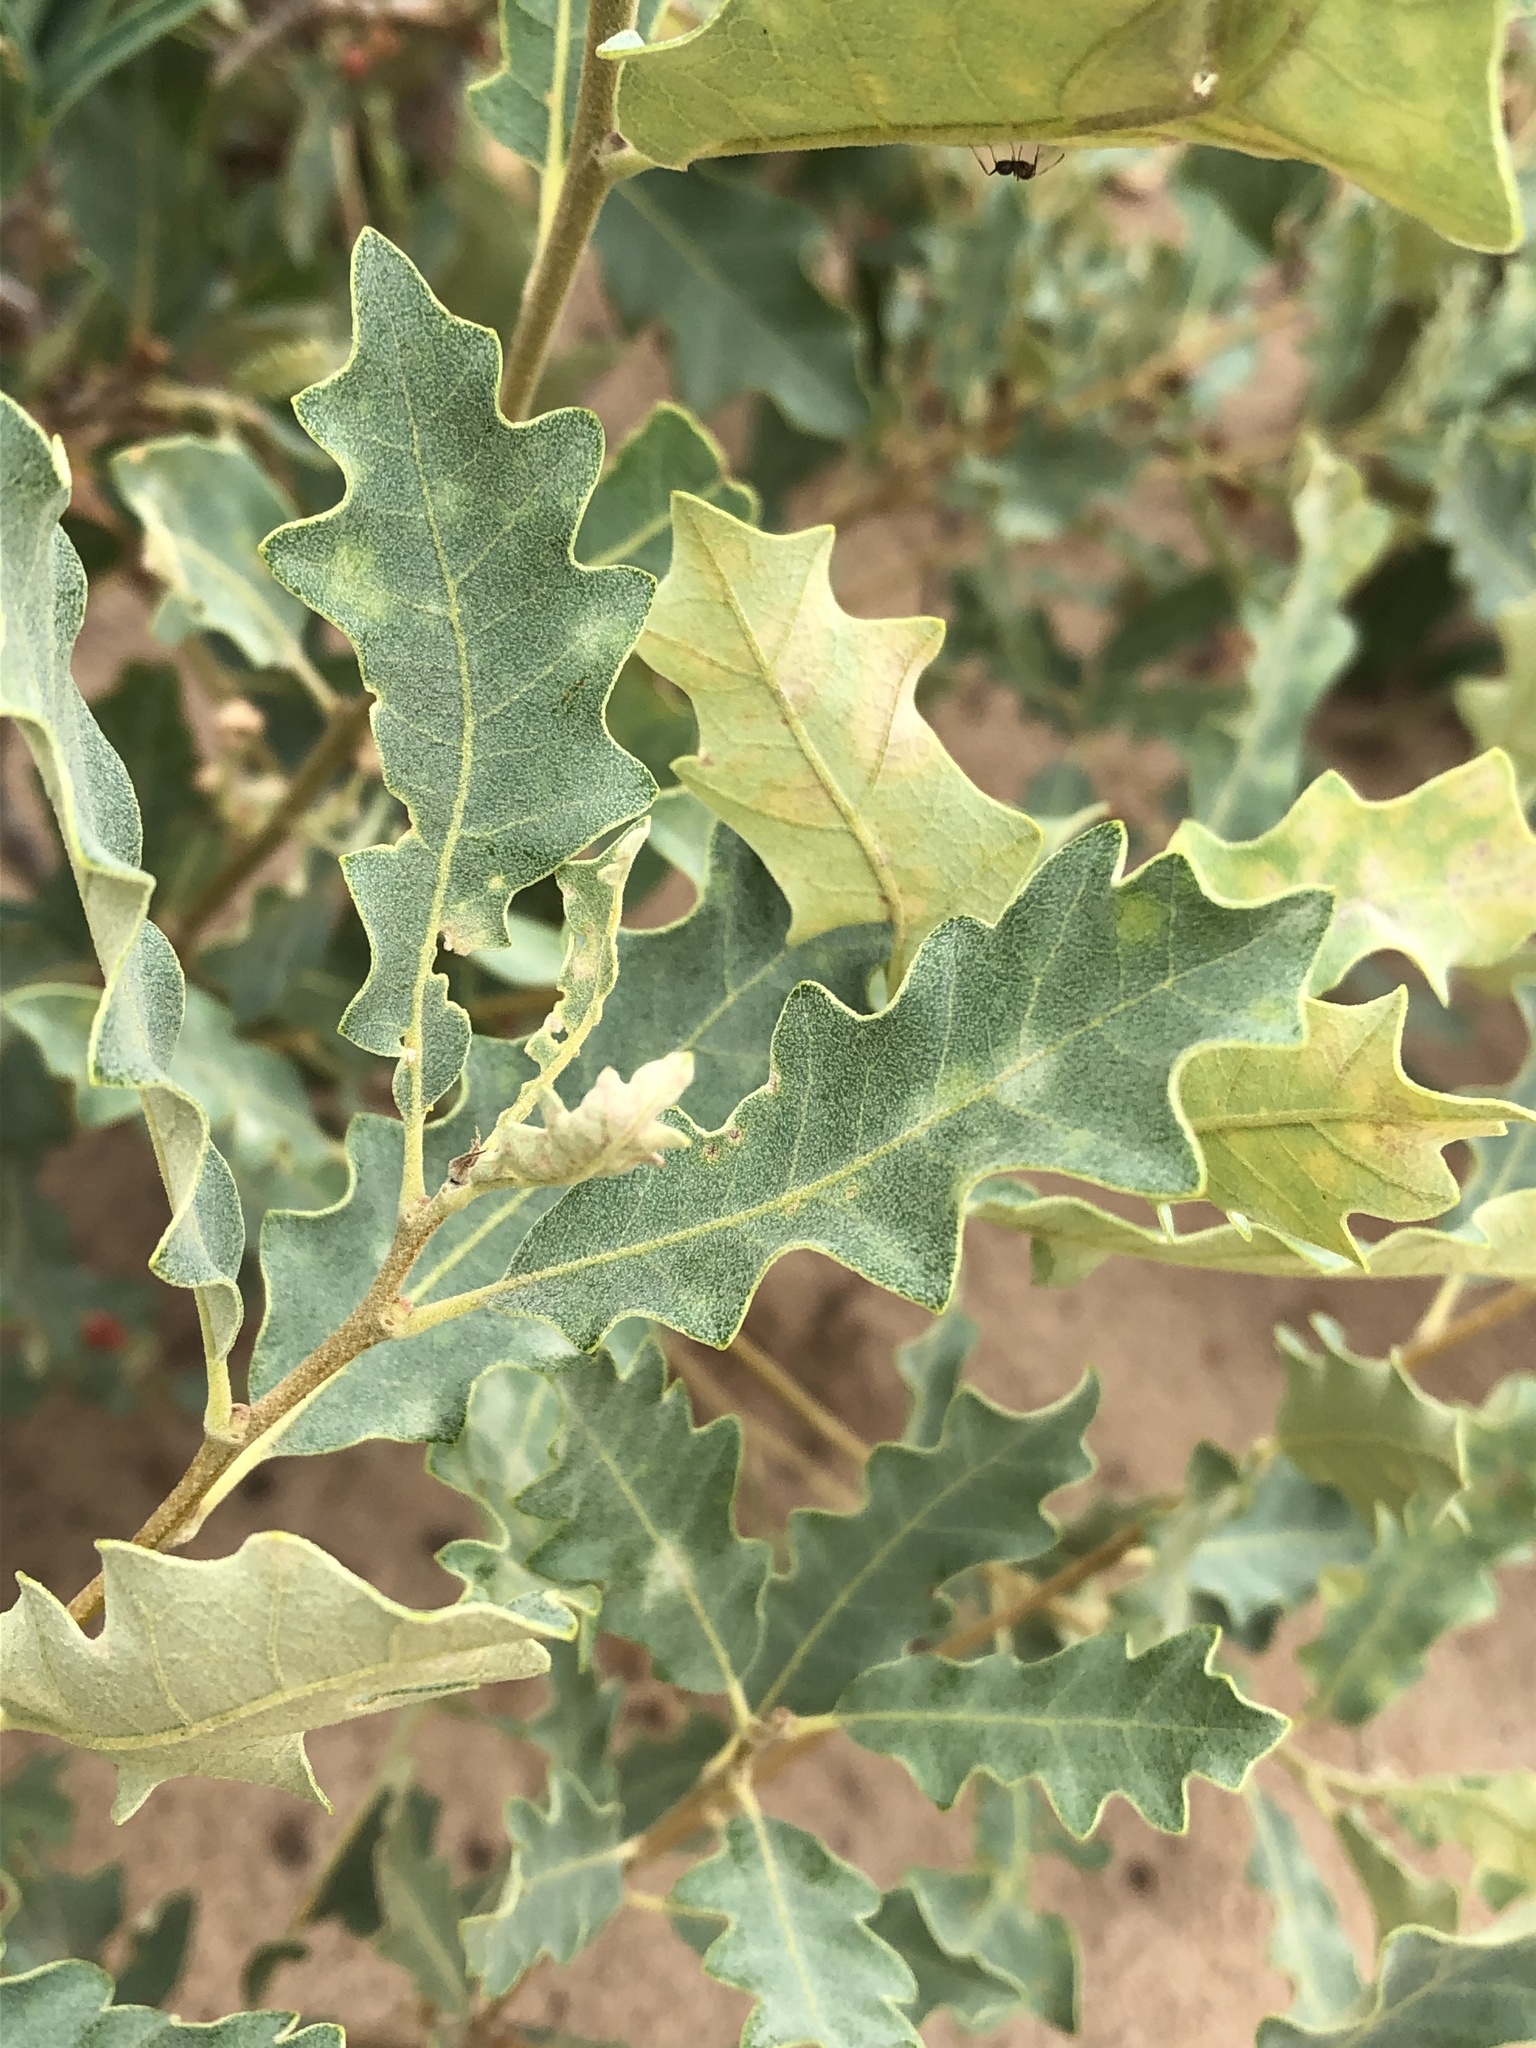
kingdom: Plantae
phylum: Tracheophyta
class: Magnoliopsida
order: Fagales
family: Fagaceae
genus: Quercus
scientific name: Quercus havardii
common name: Shinnery oak
